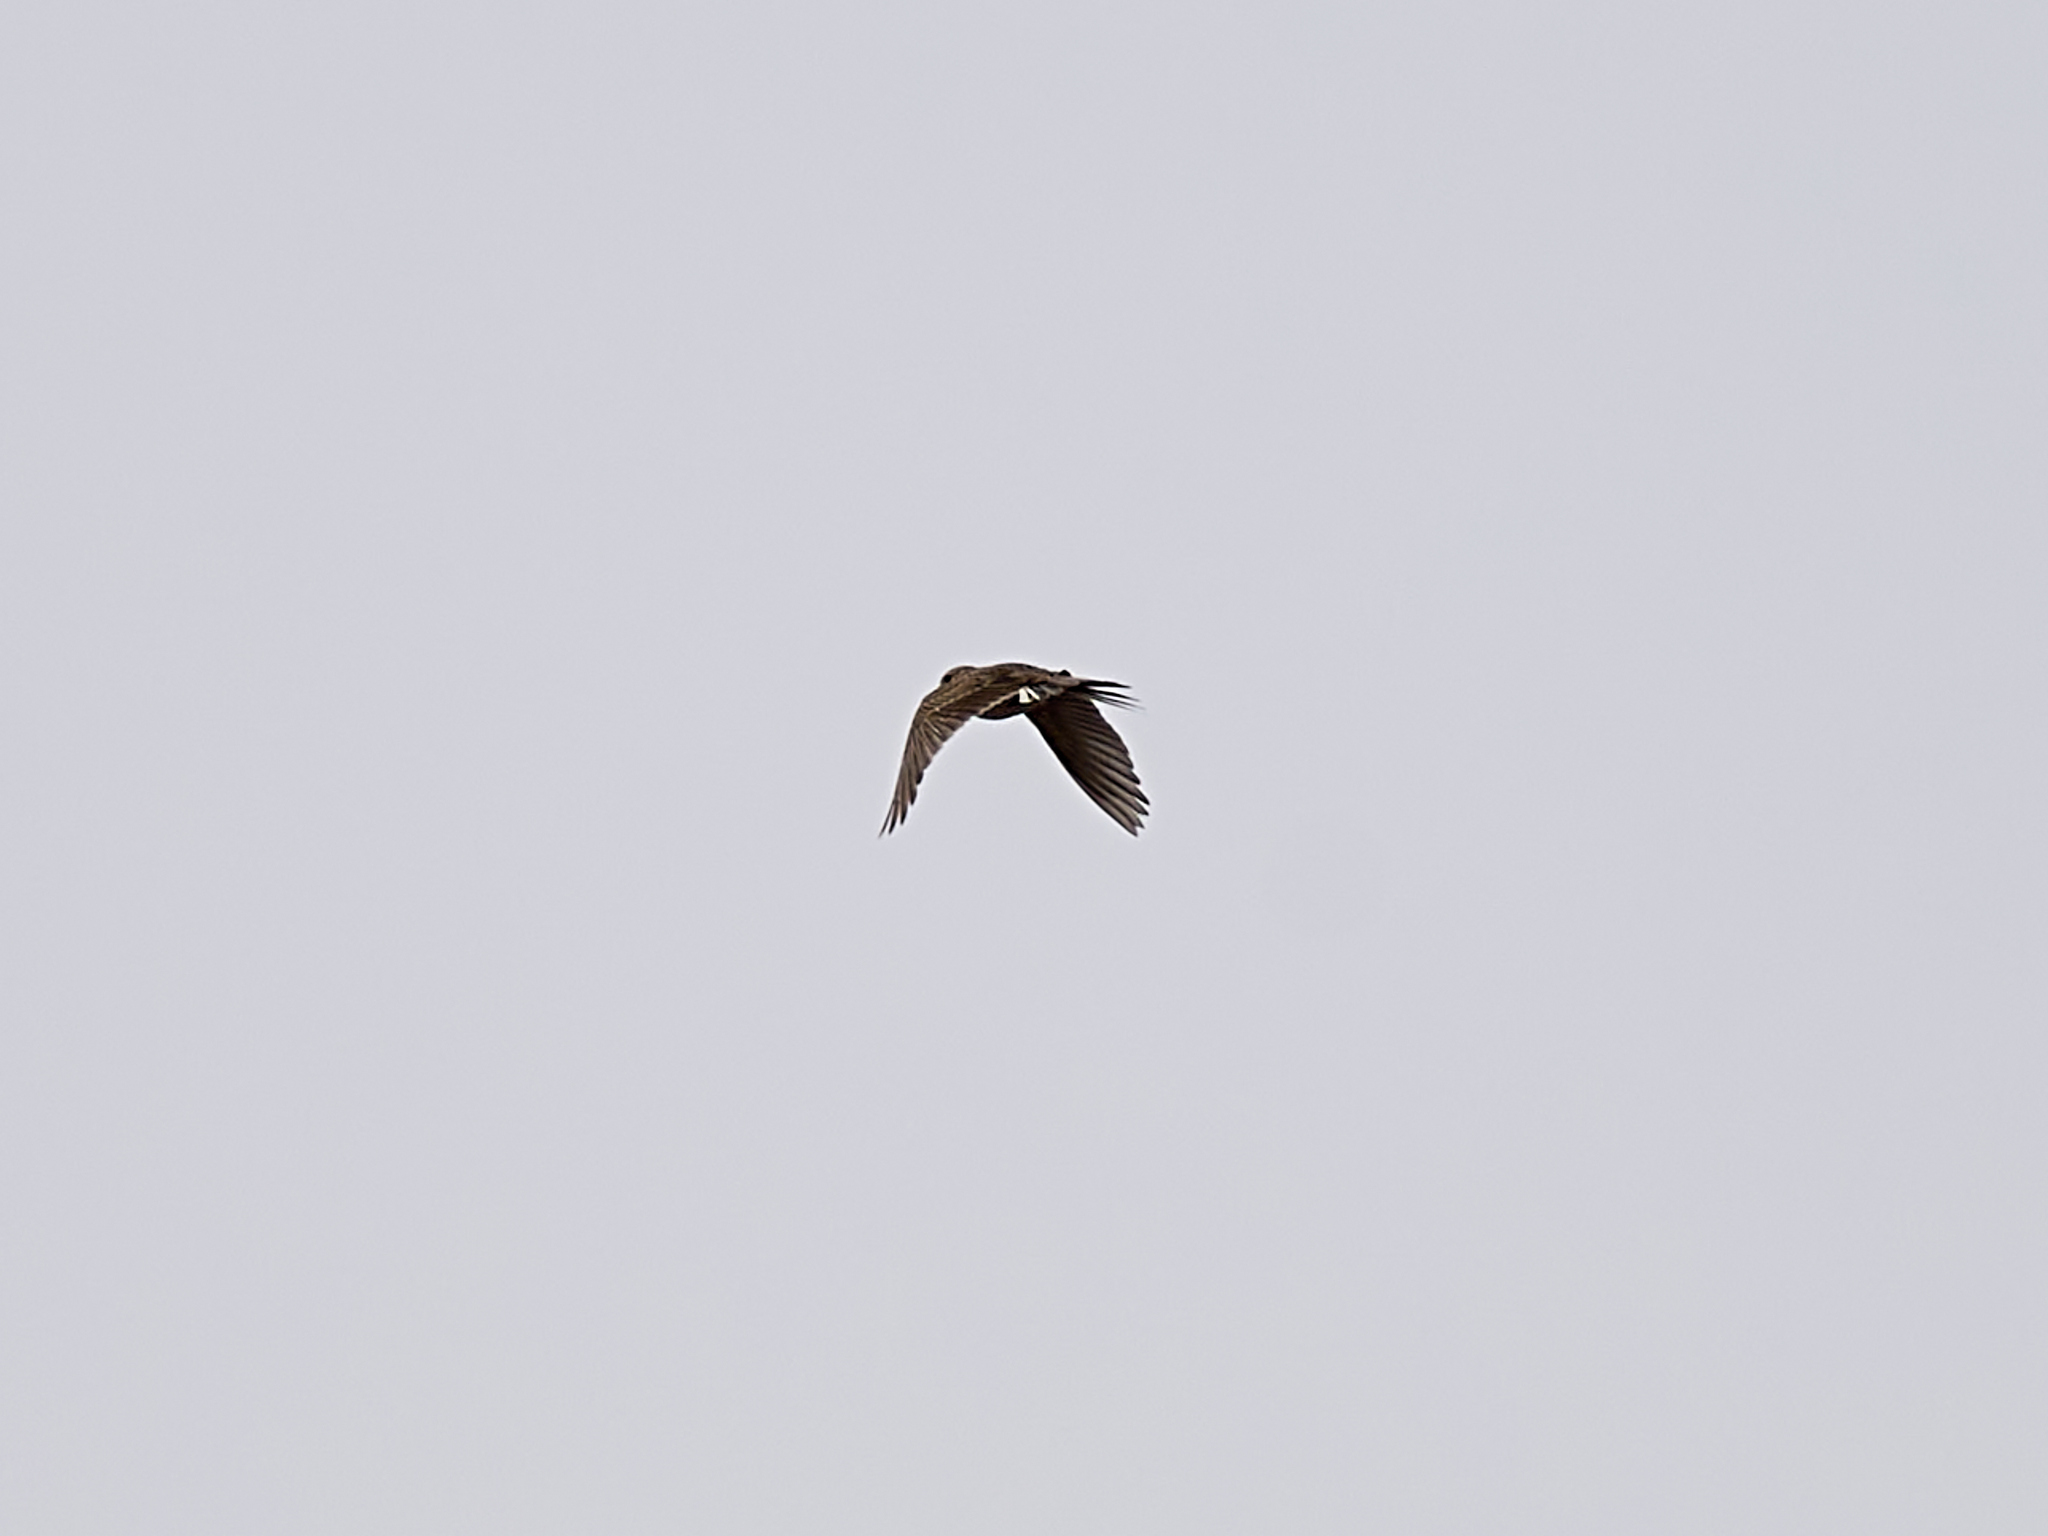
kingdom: Animalia
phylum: Chordata
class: Aves
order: Passeriformes
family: Alaudidae
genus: Alauda
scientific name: Alauda arvensis
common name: Eurasian skylark
